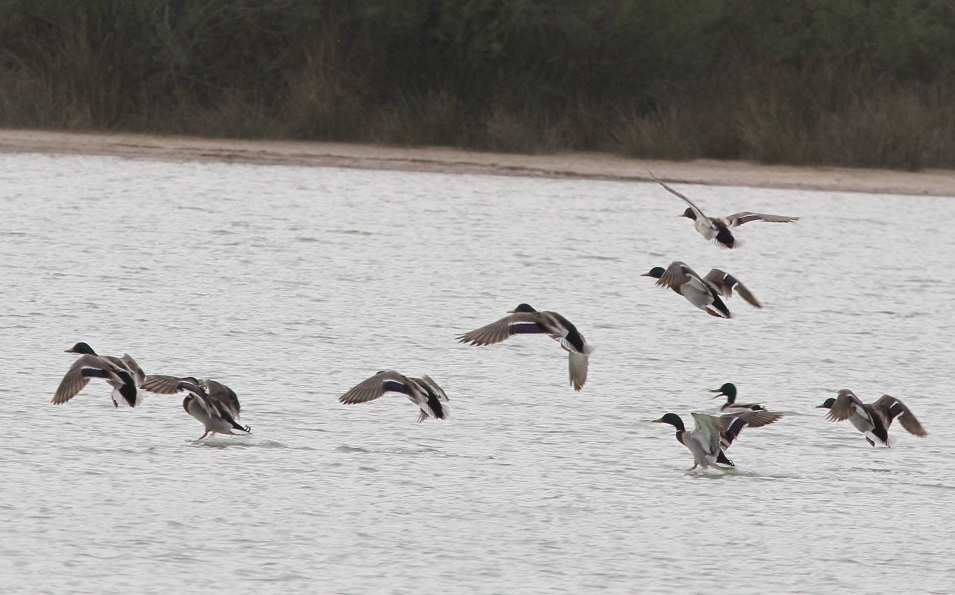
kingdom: Animalia
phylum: Chordata
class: Aves
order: Anseriformes
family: Anatidae
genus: Anas
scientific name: Anas platyrhynchos
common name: Mallard
